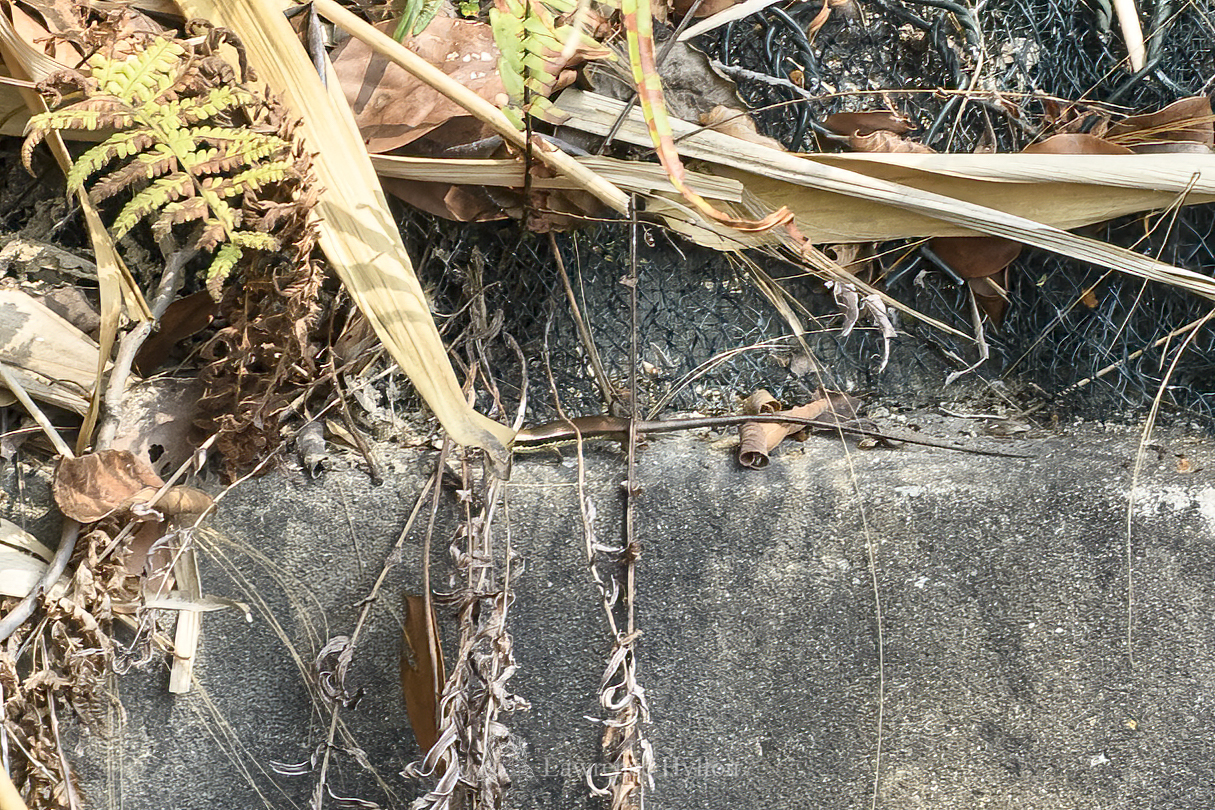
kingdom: Animalia
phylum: Chordata
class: Squamata
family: Scincidae
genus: Eutropis
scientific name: Eutropis longicaudata
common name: Long-tailed sun skink
